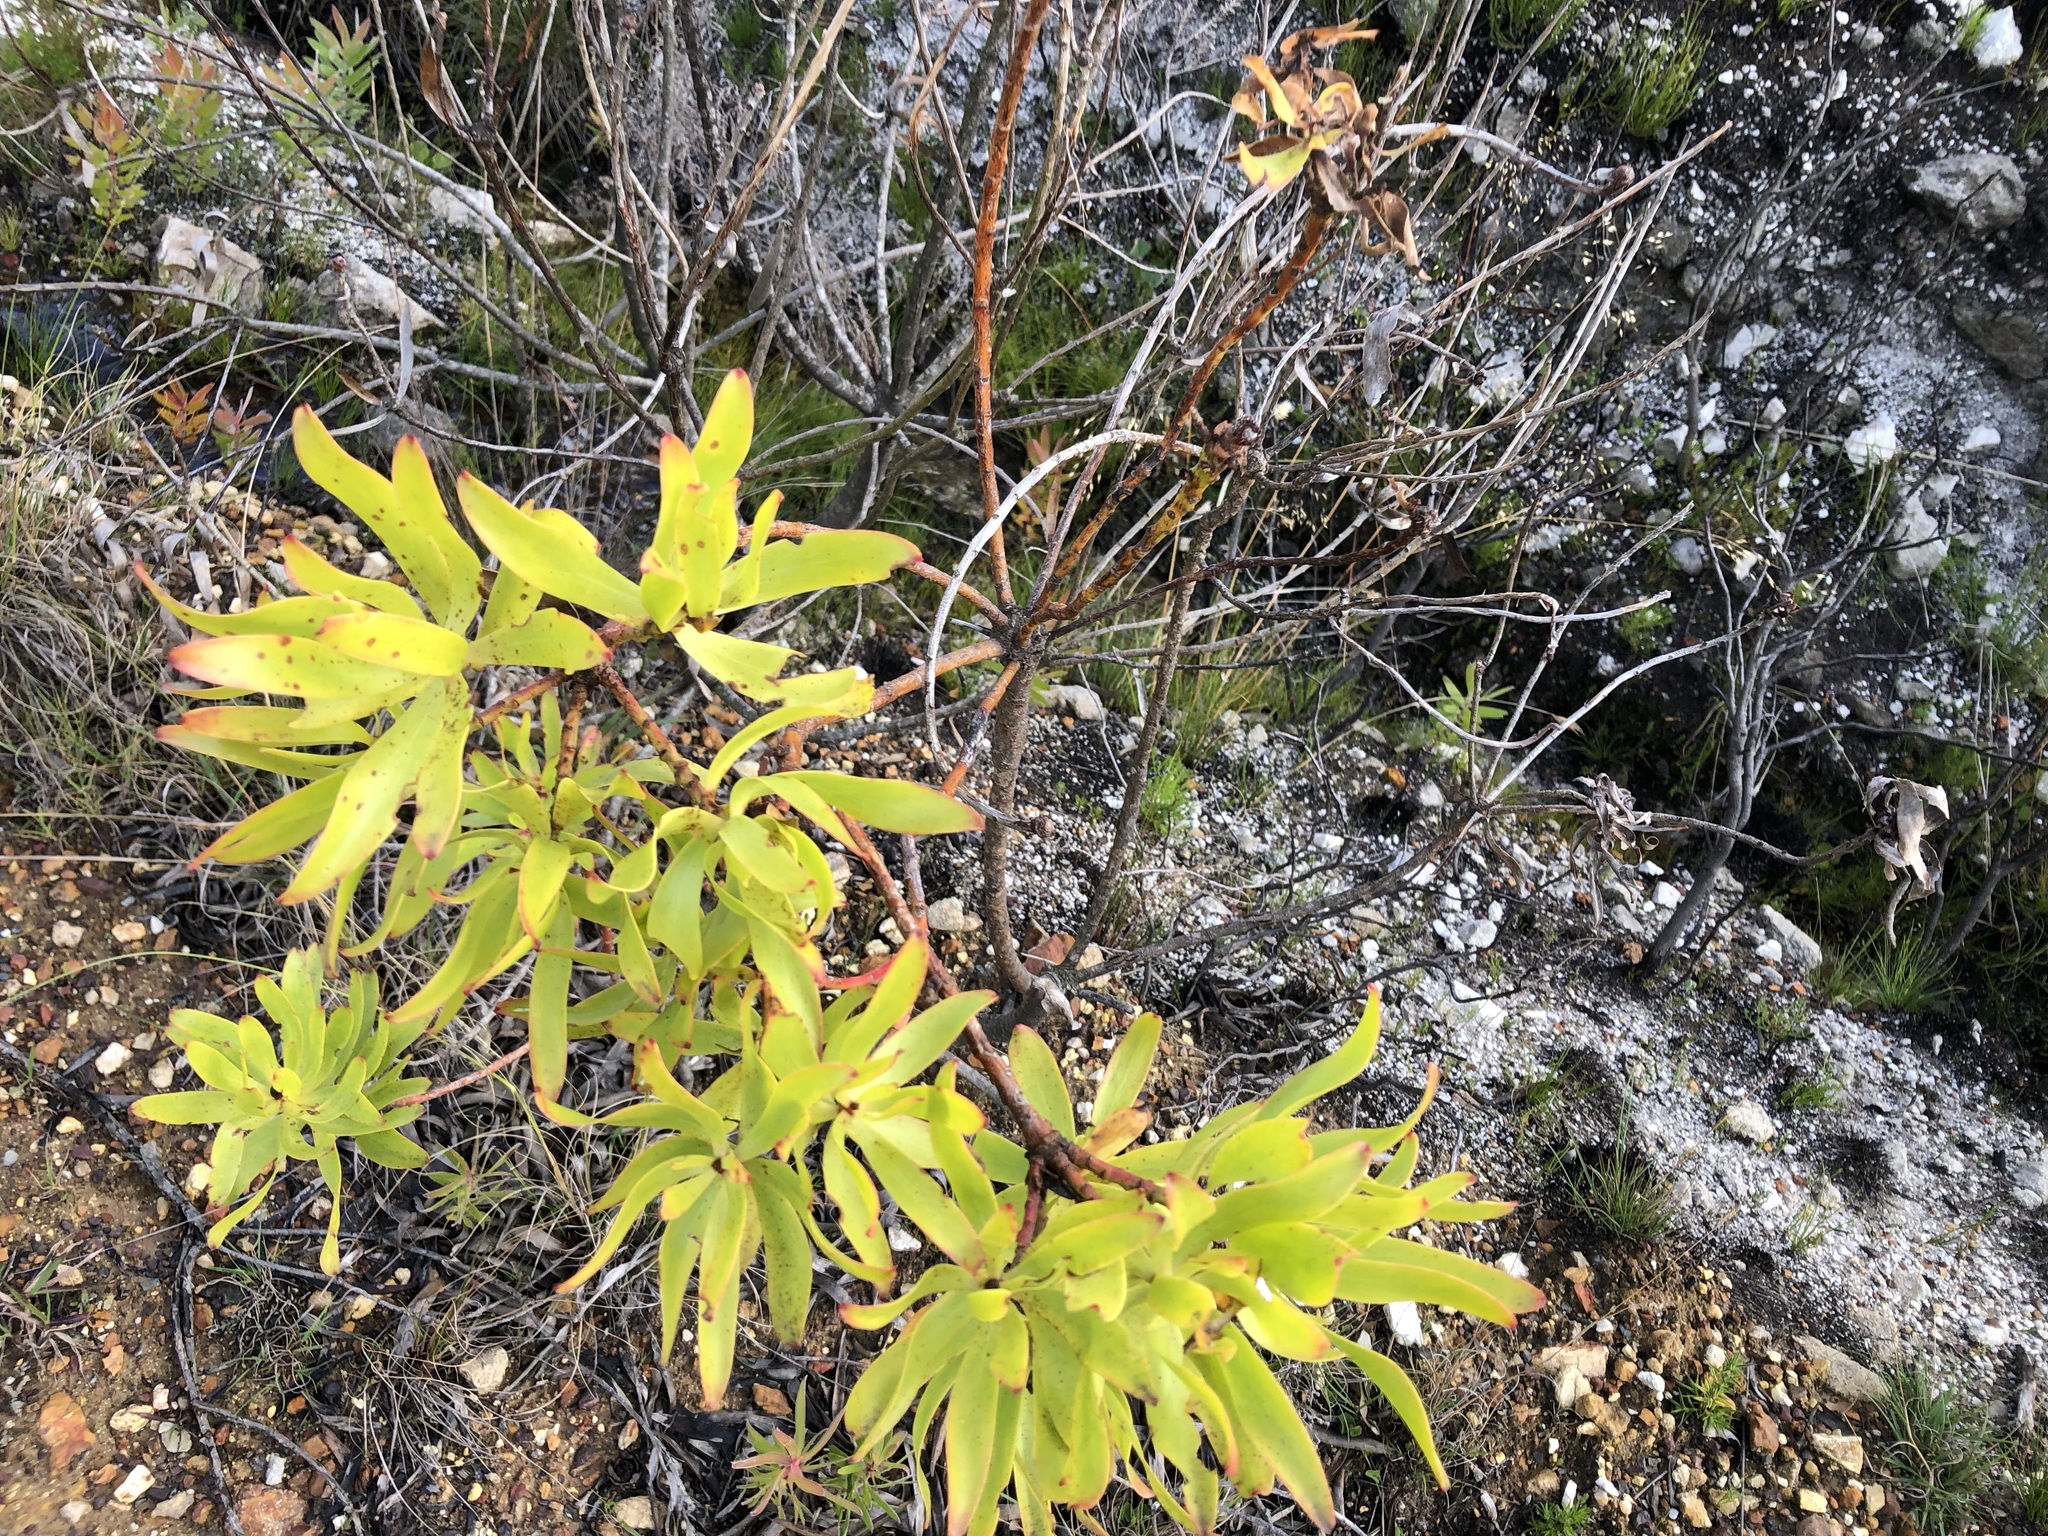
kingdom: Plantae
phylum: Tracheophyta
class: Magnoliopsida
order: Proteales
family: Proteaceae
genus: Leucadendron
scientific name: Leucadendron microcephalum
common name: Oilbract conebush
